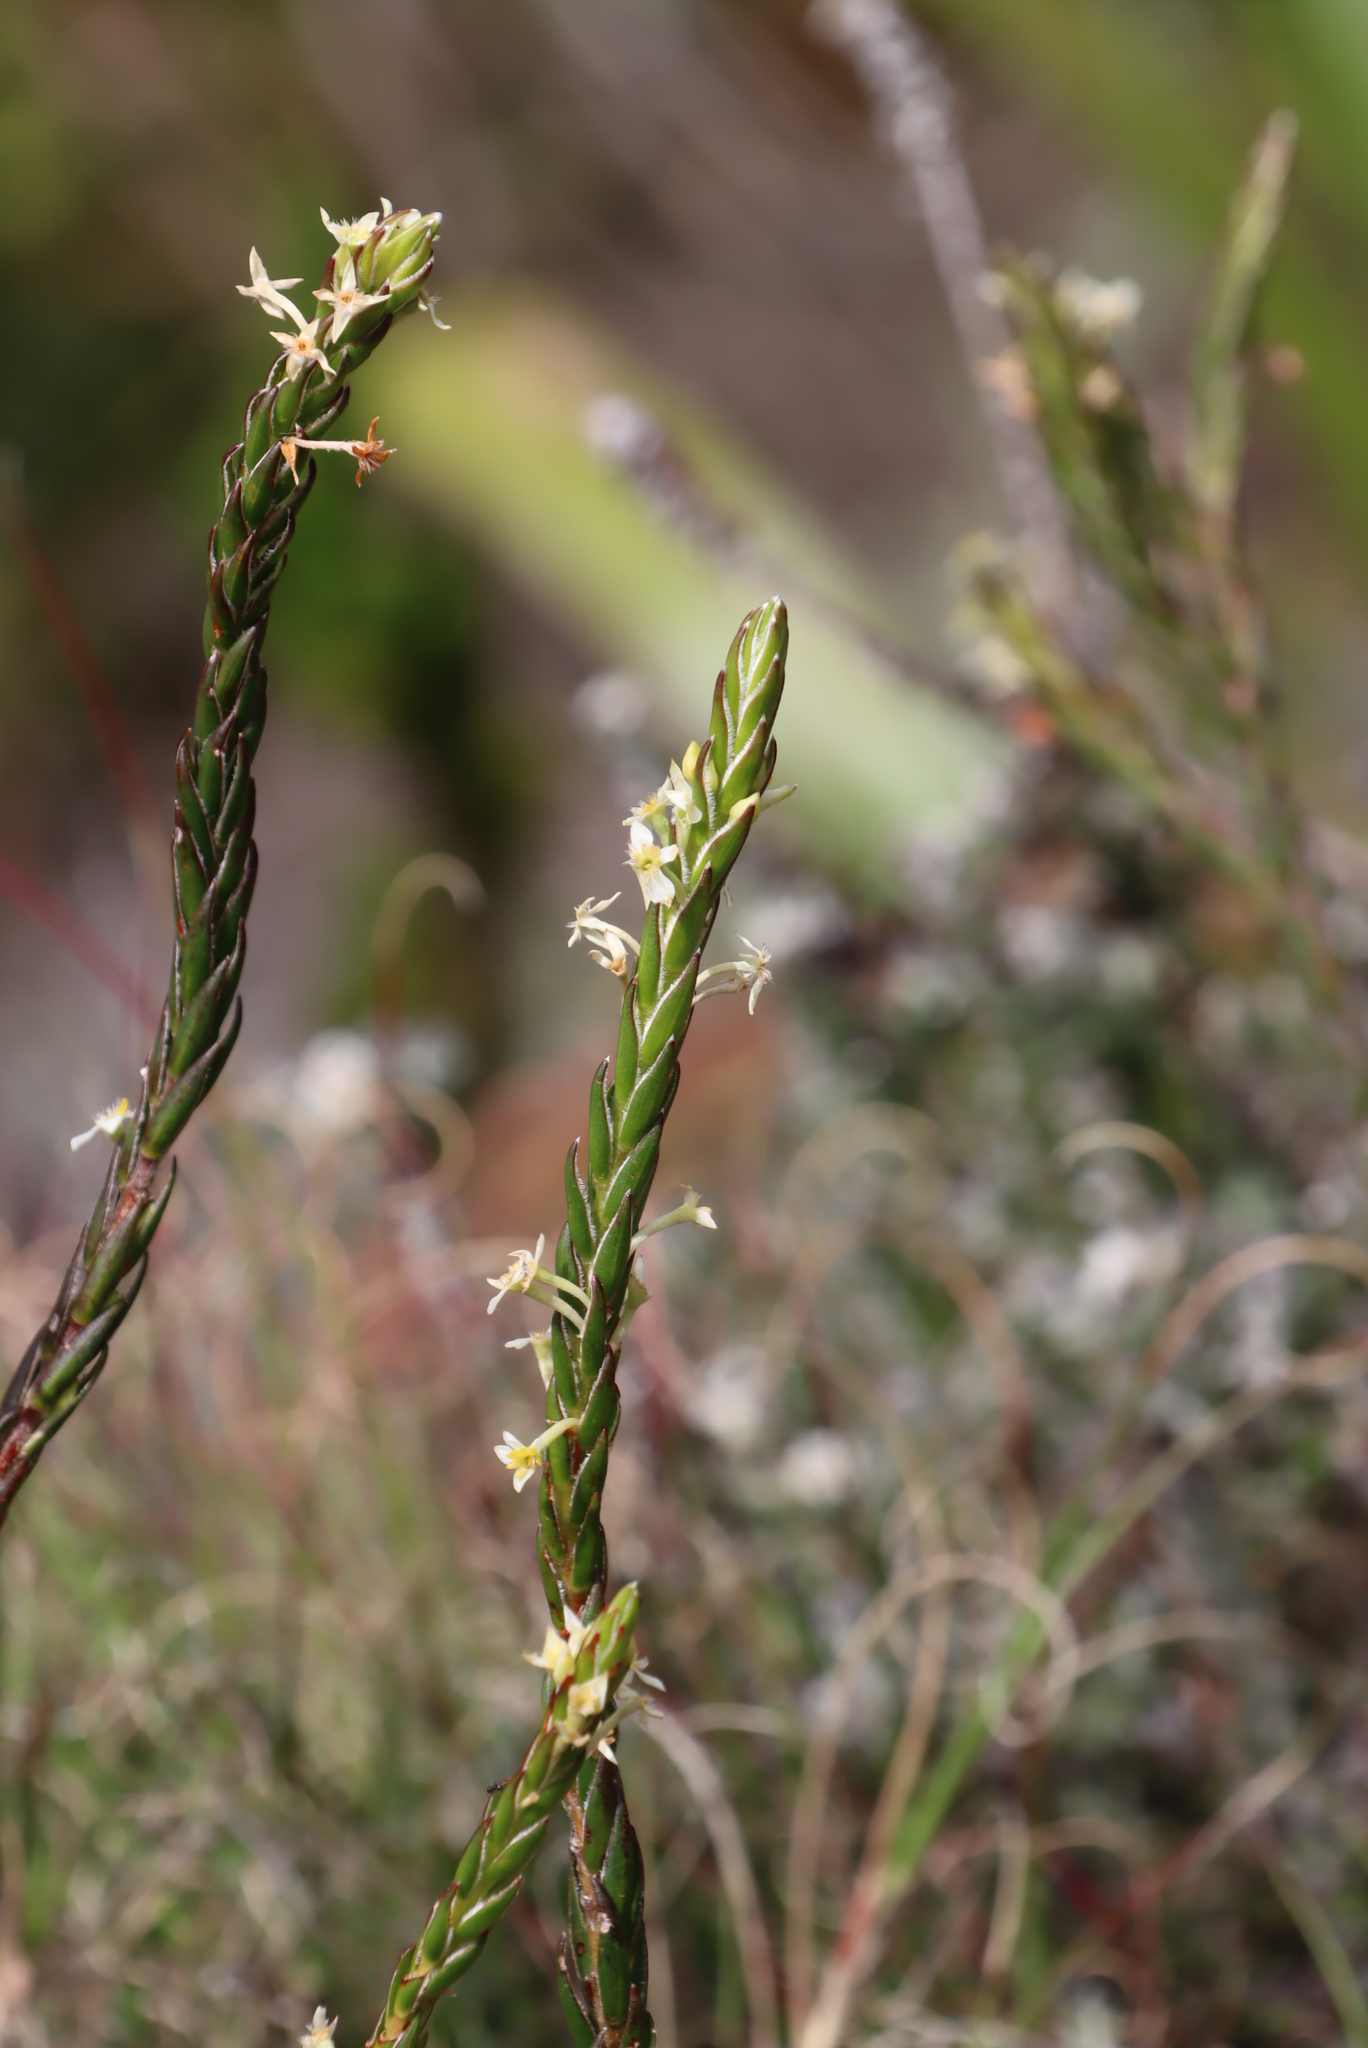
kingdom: Plantae
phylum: Tracheophyta
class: Magnoliopsida
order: Malvales
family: Thymelaeaceae
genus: Struthiola
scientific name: Struthiola ciliata
